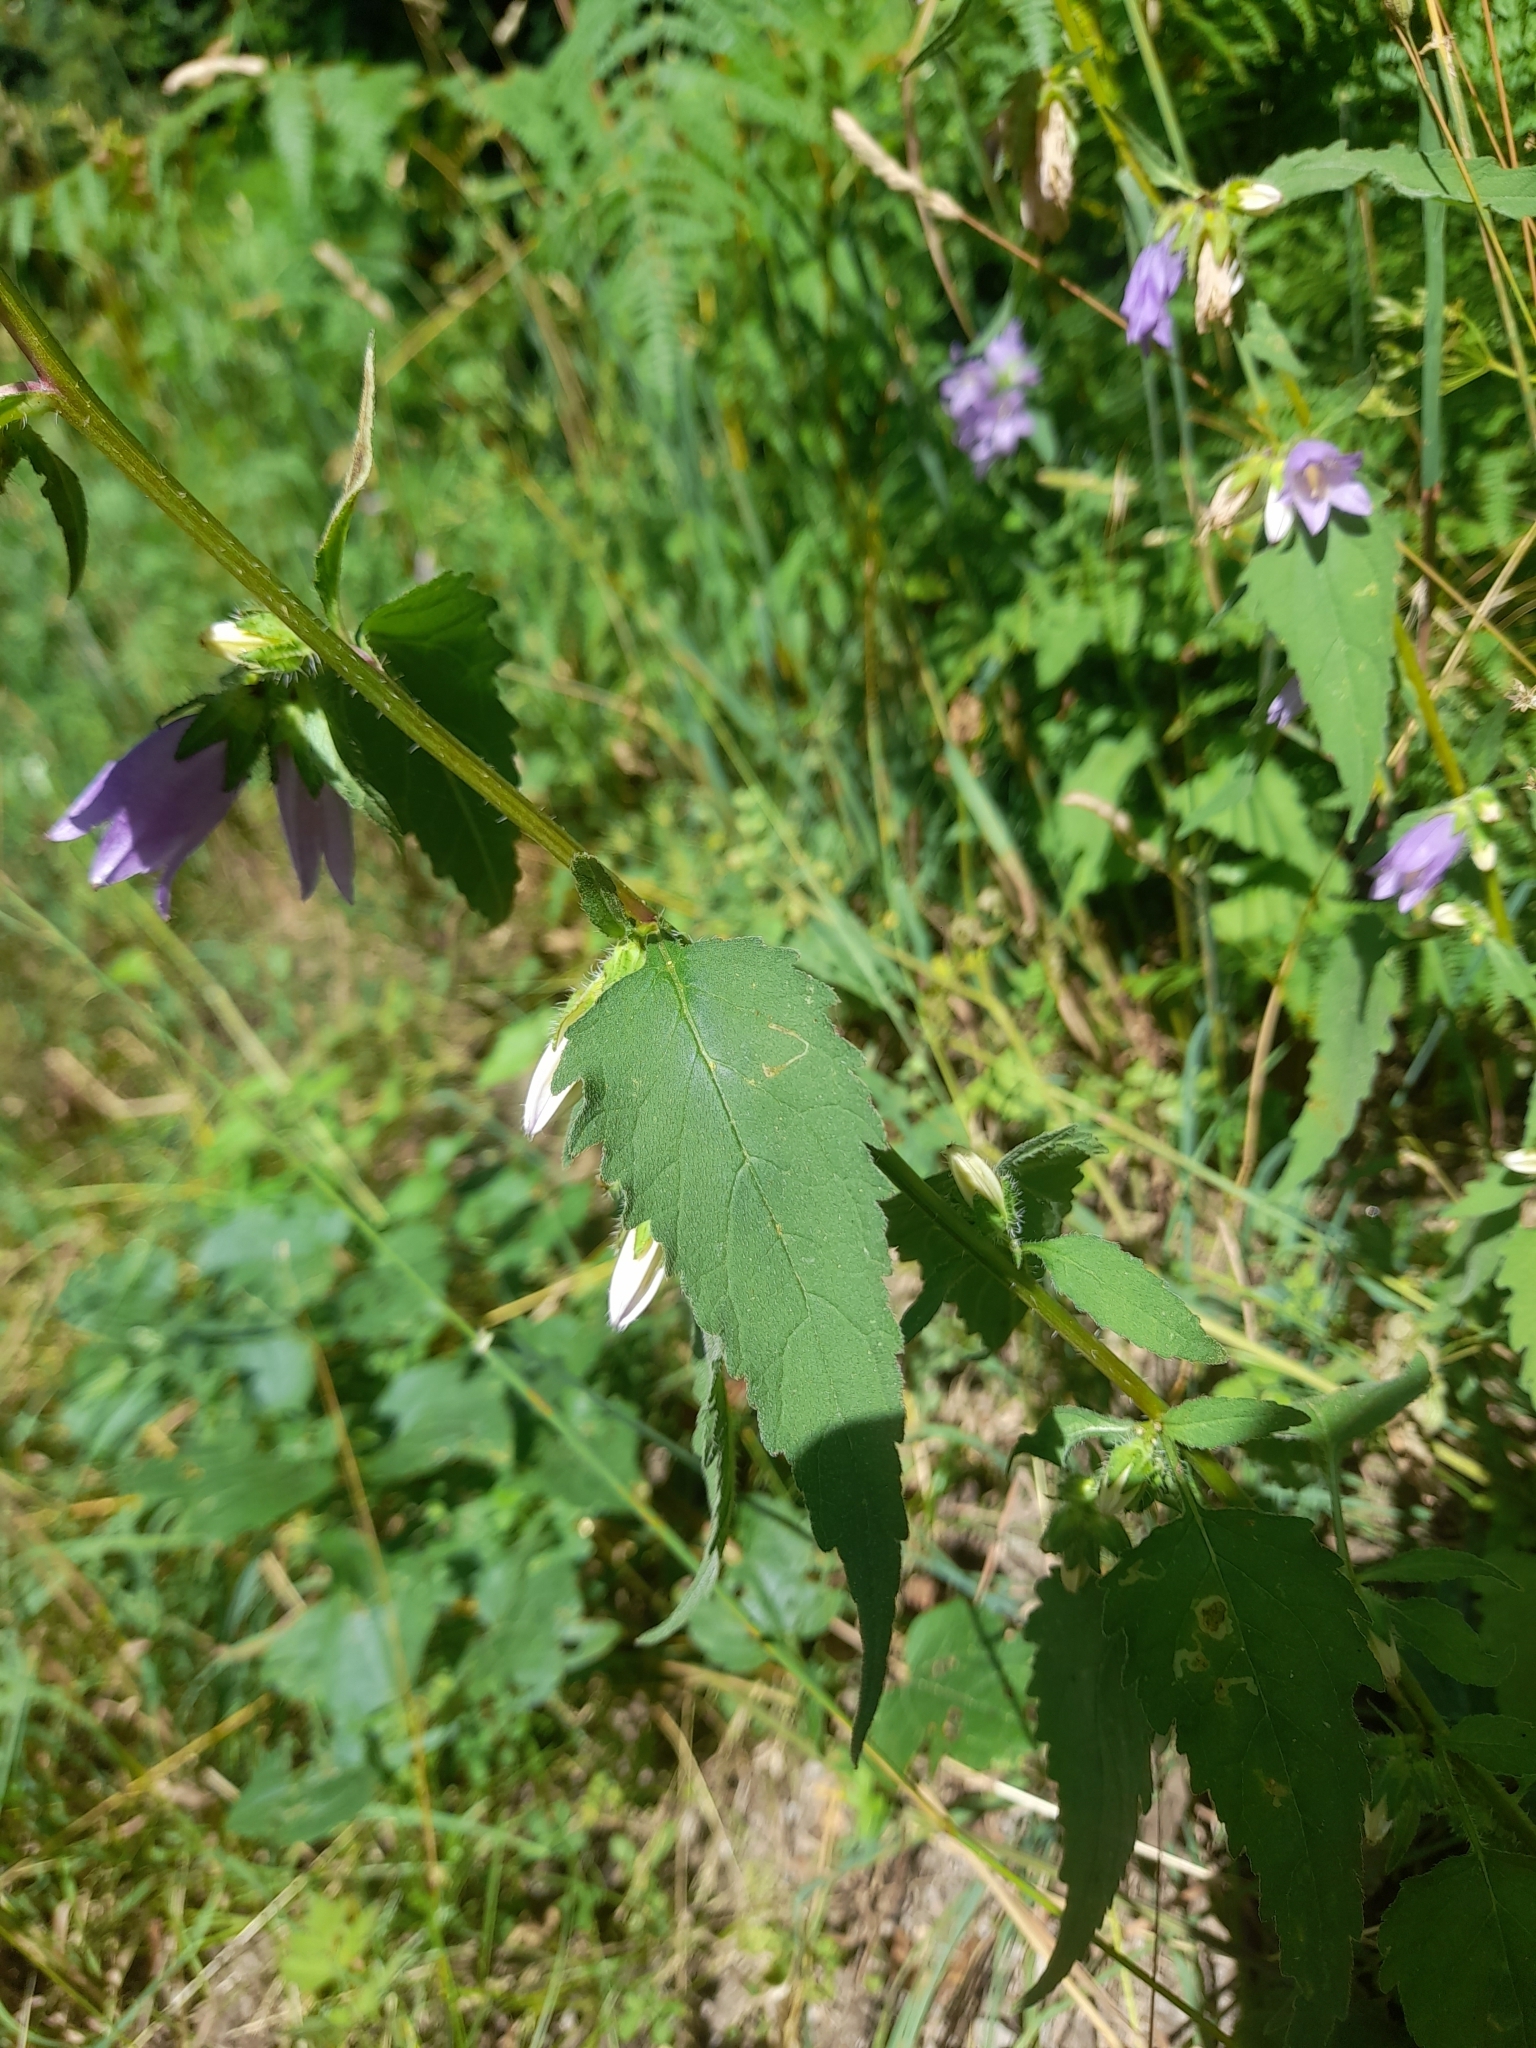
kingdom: Plantae
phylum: Tracheophyta
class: Magnoliopsida
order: Asterales
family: Campanulaceae
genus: Campanula
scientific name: Campanula trachelium
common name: Nettle-leaved bellflower
